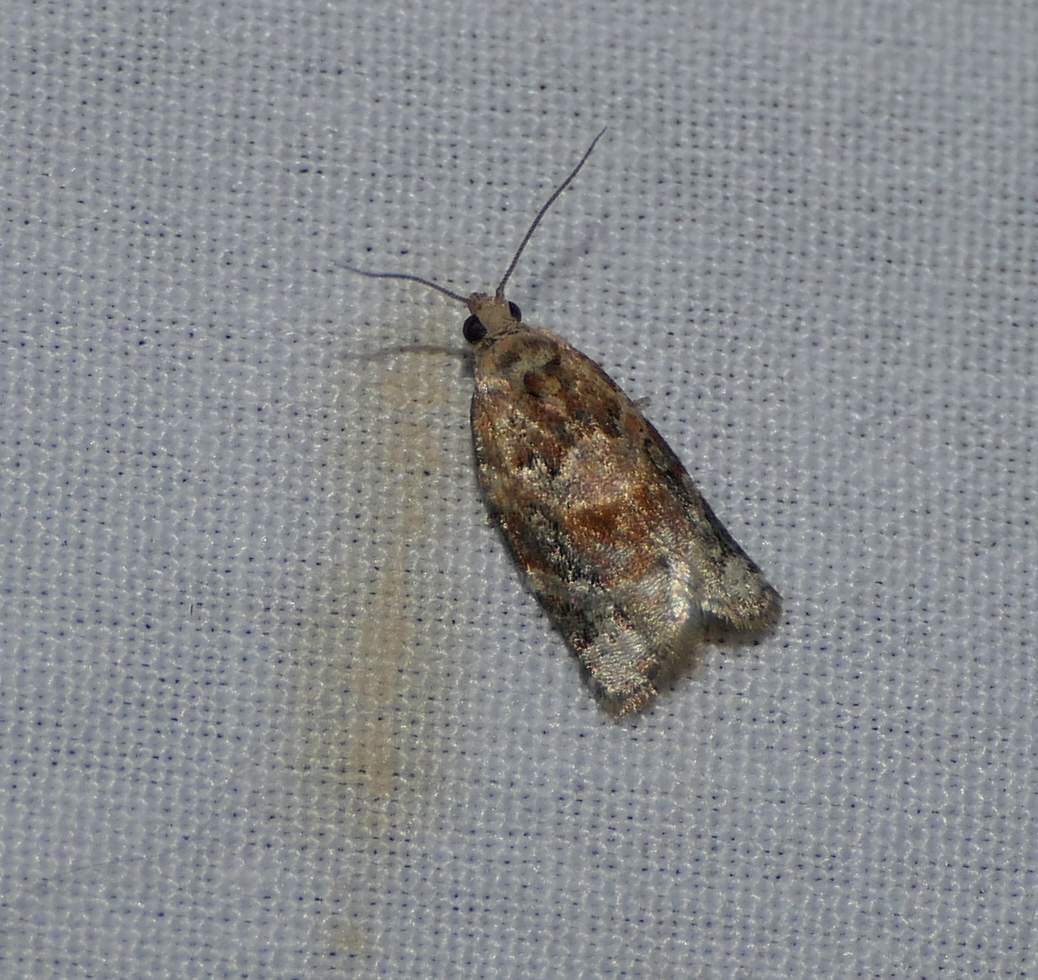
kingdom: Animalia
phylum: Arthropoda
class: Insecta
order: Lepidoptera
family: Tortricidae
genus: Argyrotaenia
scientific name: Argyrotaenia velutinana
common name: Red-banded leafroller moth
